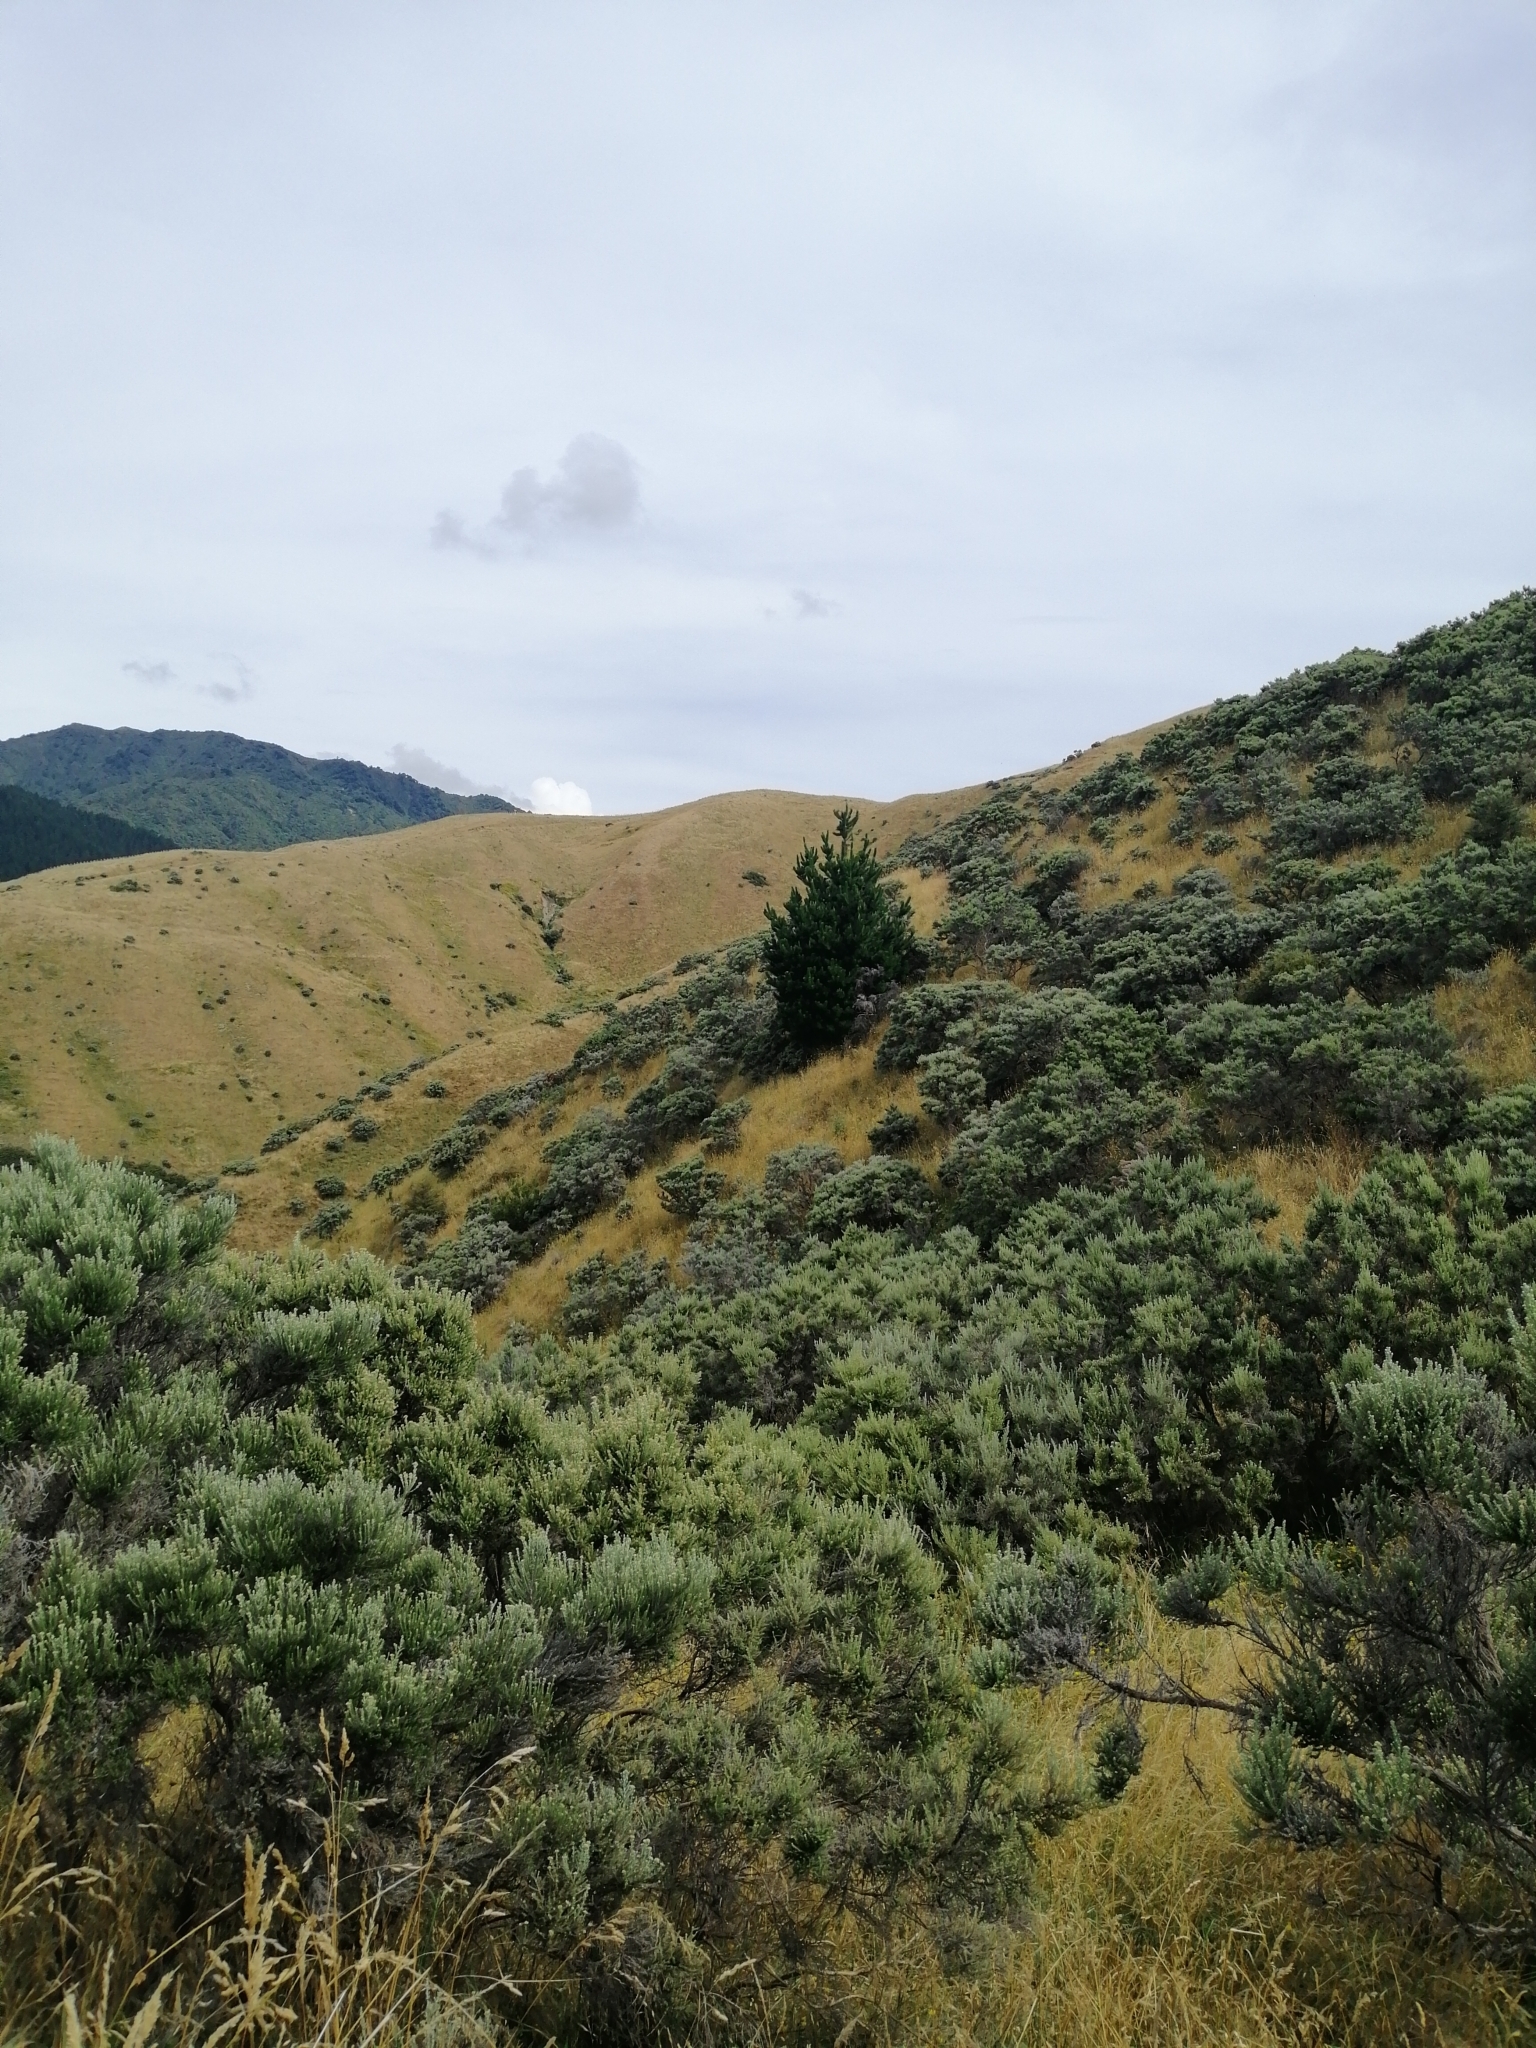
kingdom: Plantae
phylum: Tracheophyta
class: Pinopsida
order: Pinales
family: Pinaceae
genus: Pinus
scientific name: Pinus radiata
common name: Monterey pine
